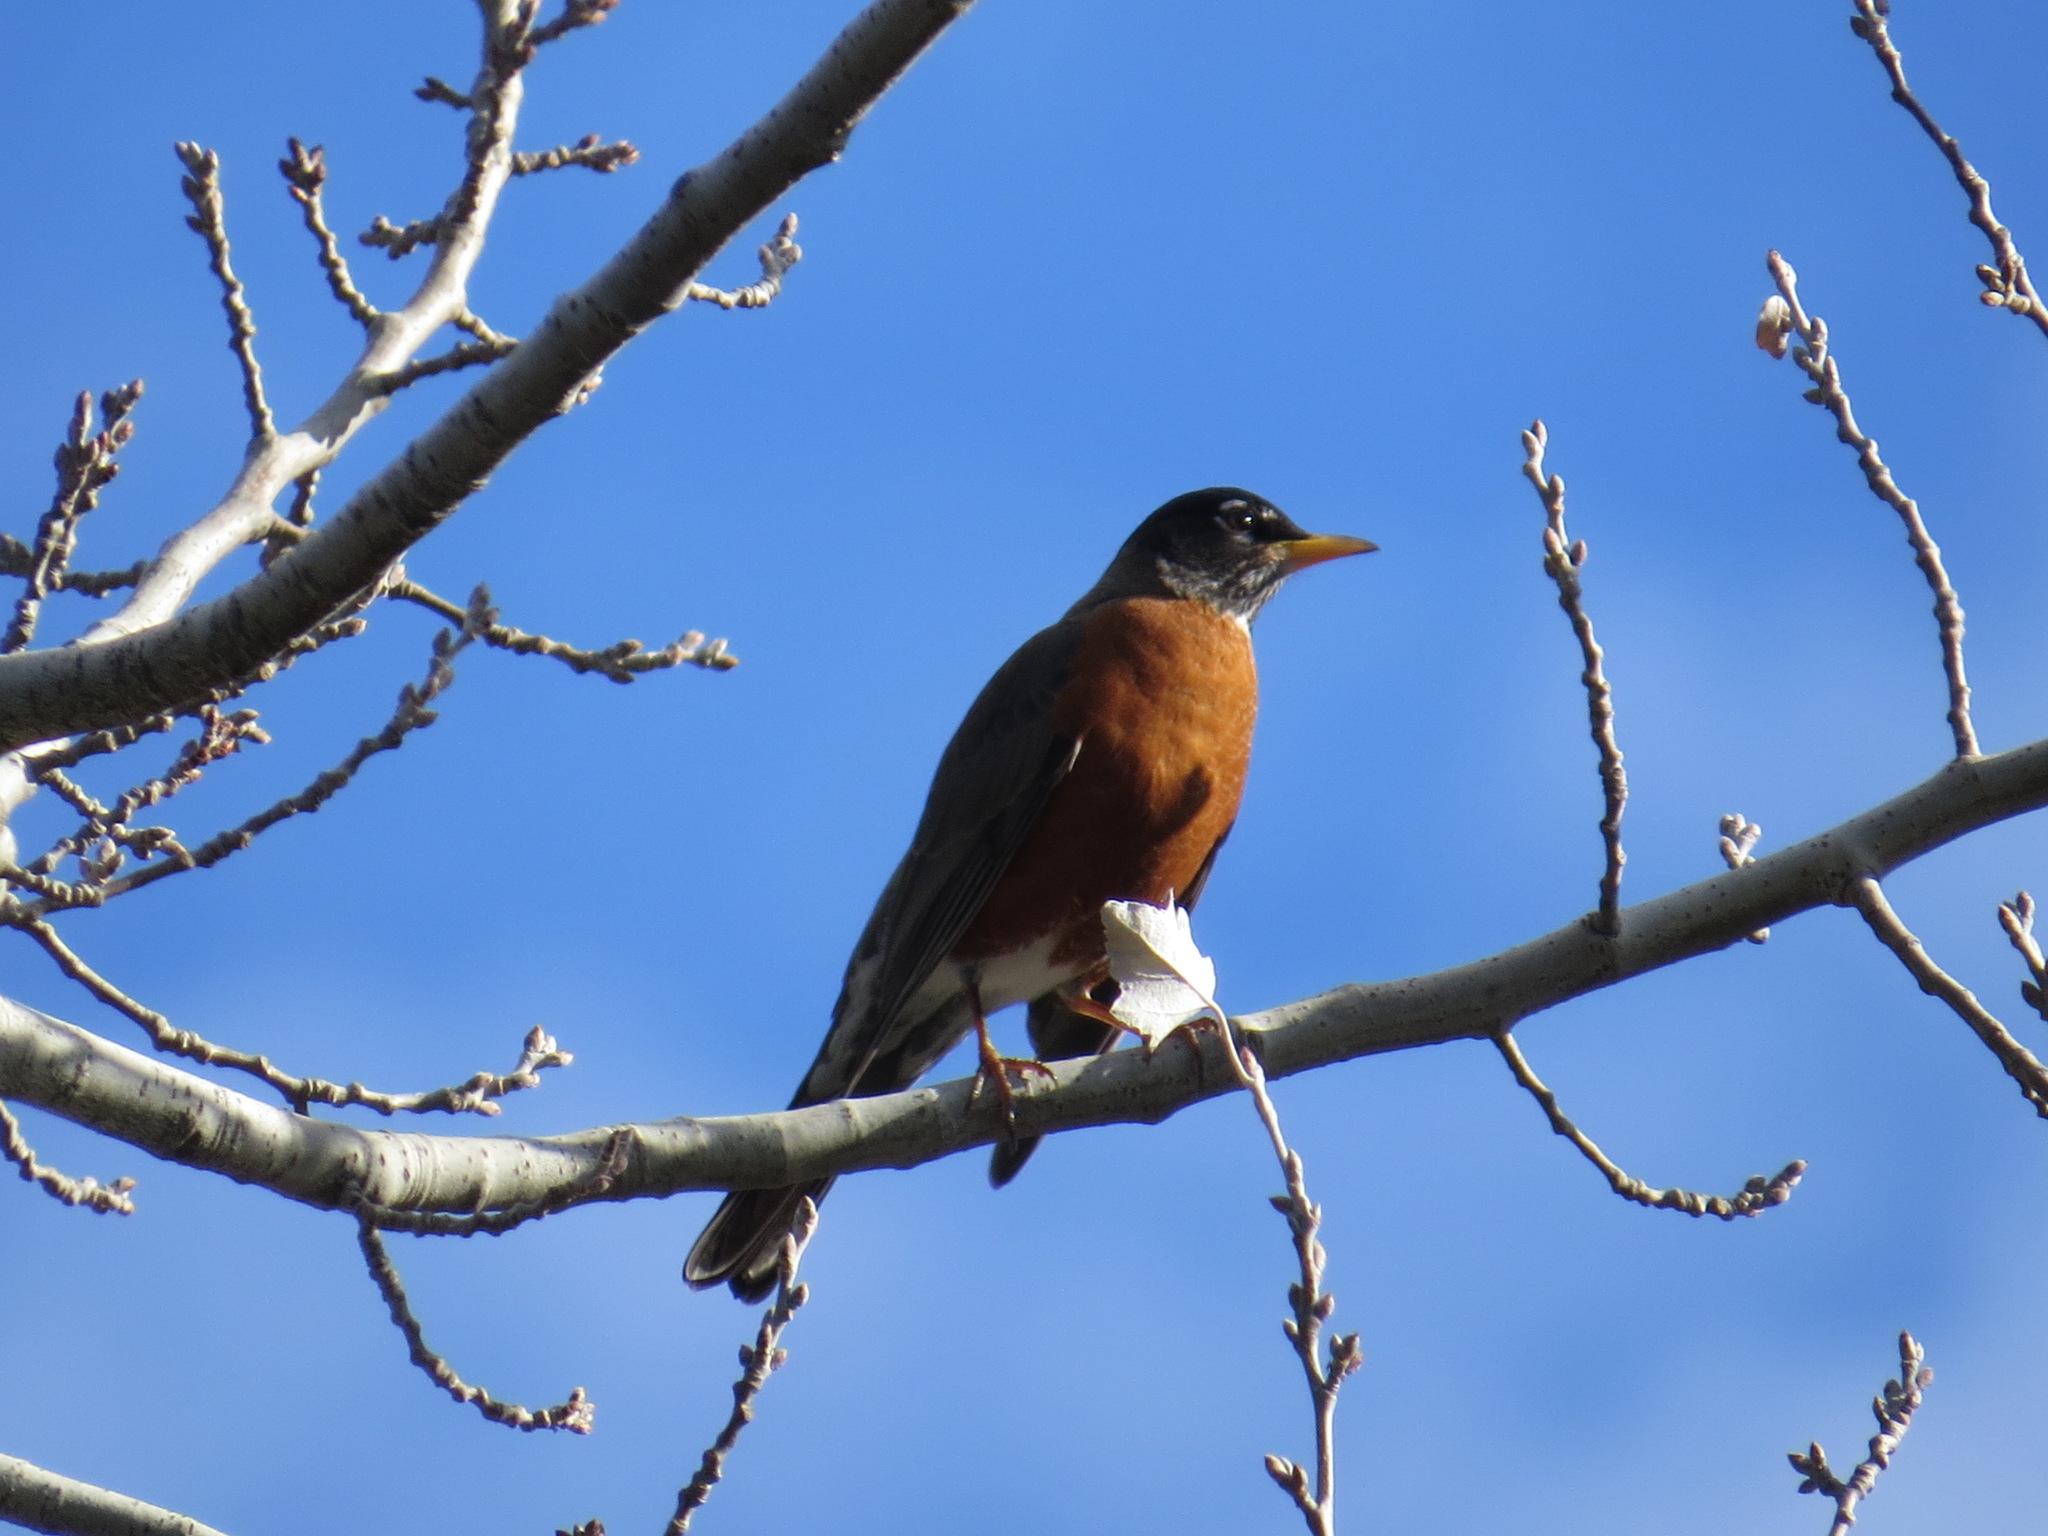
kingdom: Animalia
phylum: Chordata
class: Aves
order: Passeriformes
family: Turdidae
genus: Turdus
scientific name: Turdus migratorius
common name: American robin
